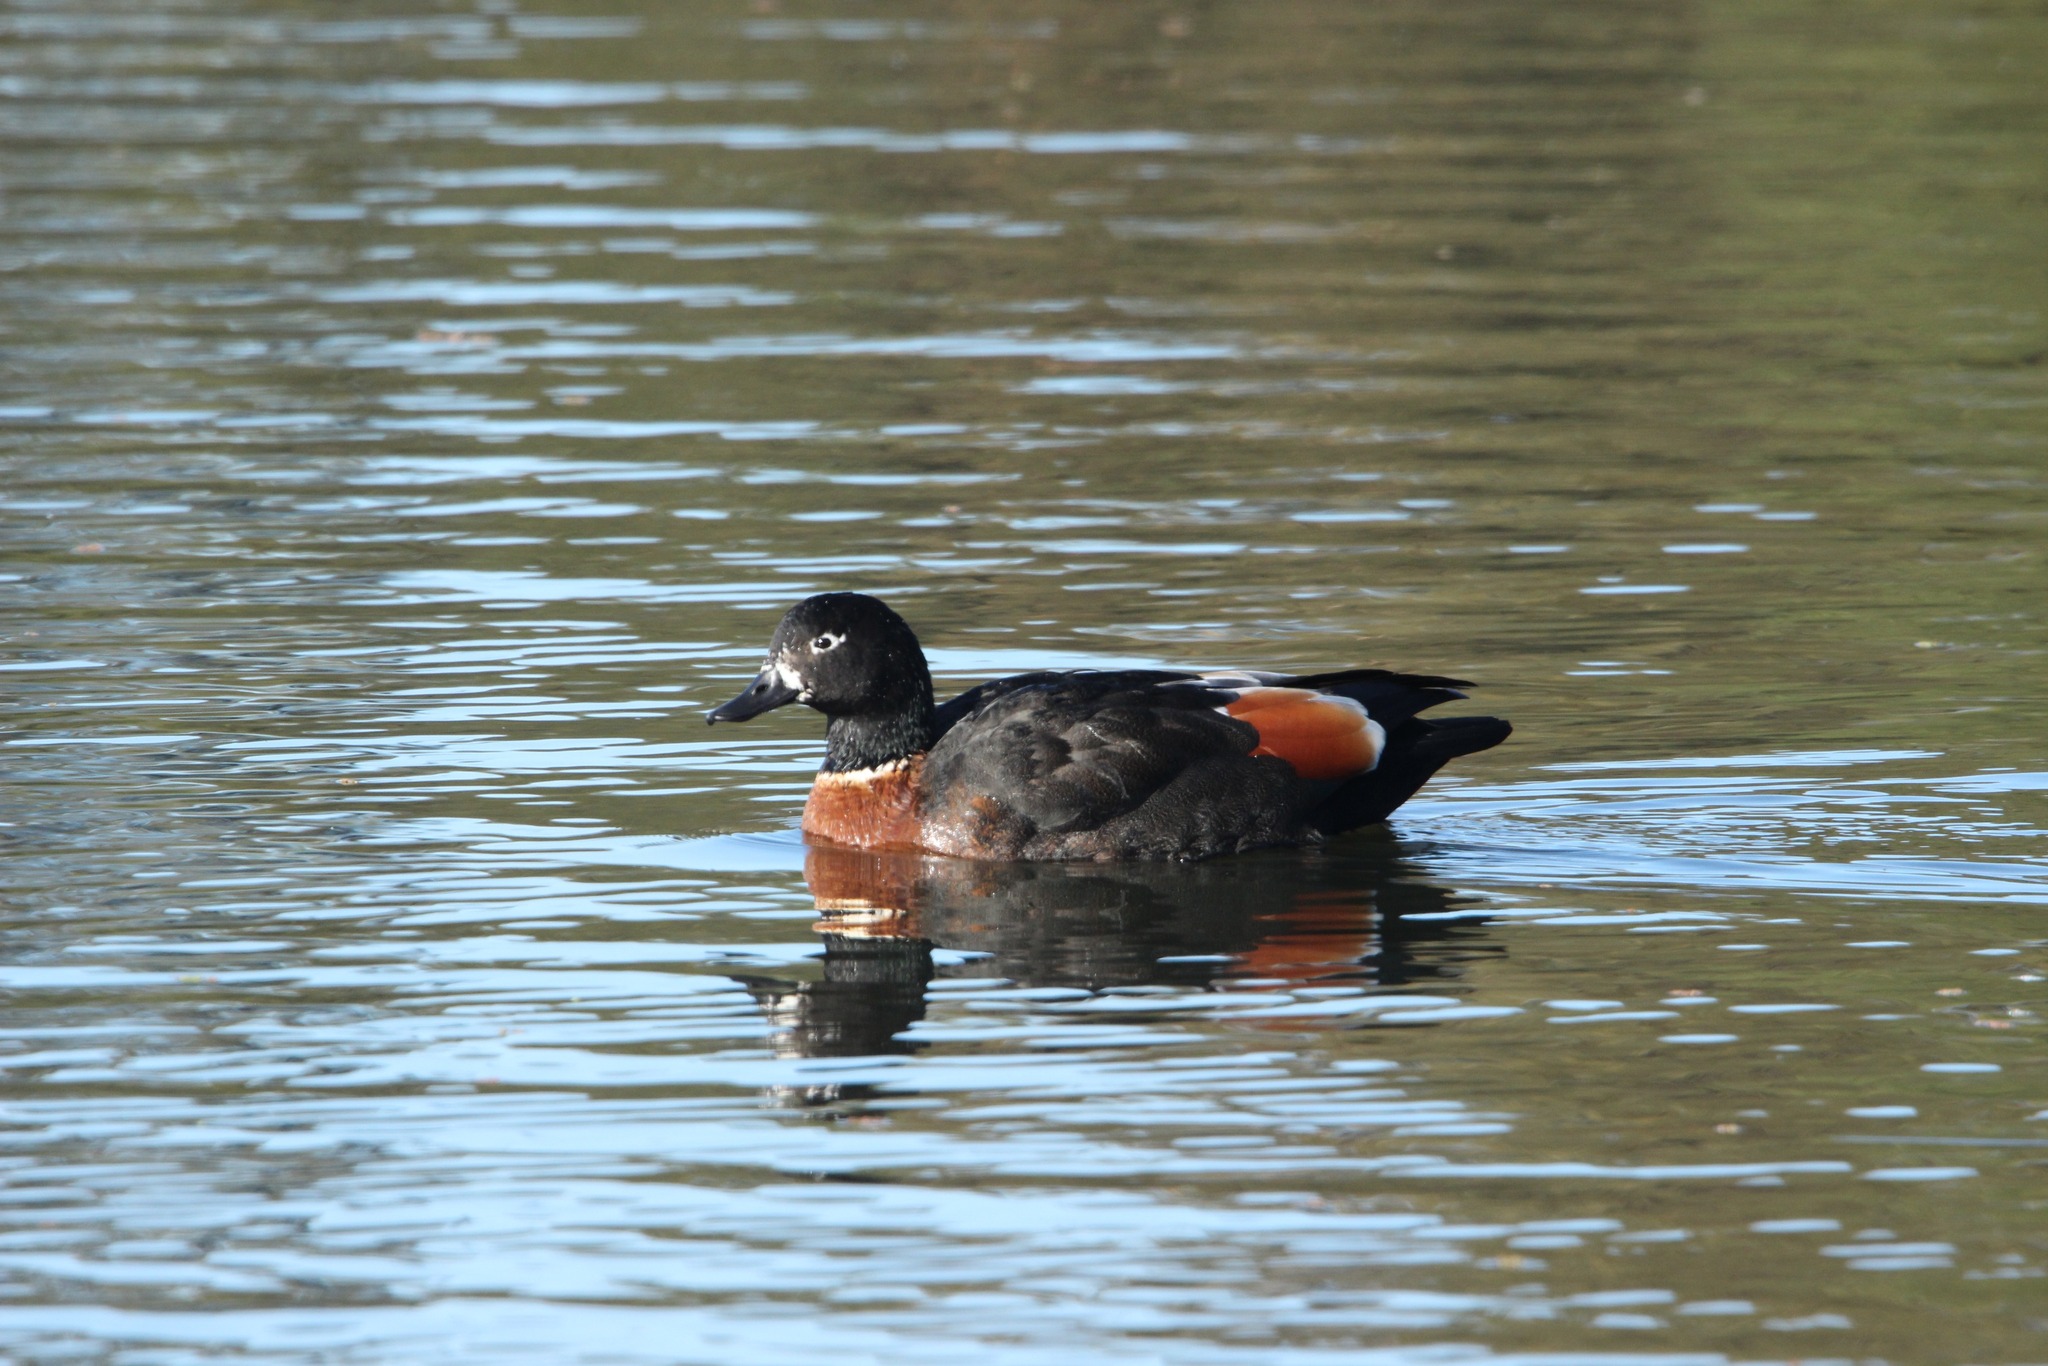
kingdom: Animalia
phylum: Chordata
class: Aves
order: Anseriformes
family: Anatidae
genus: Tadorna
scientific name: Tadorna tadornoides
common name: Australian shelduck
